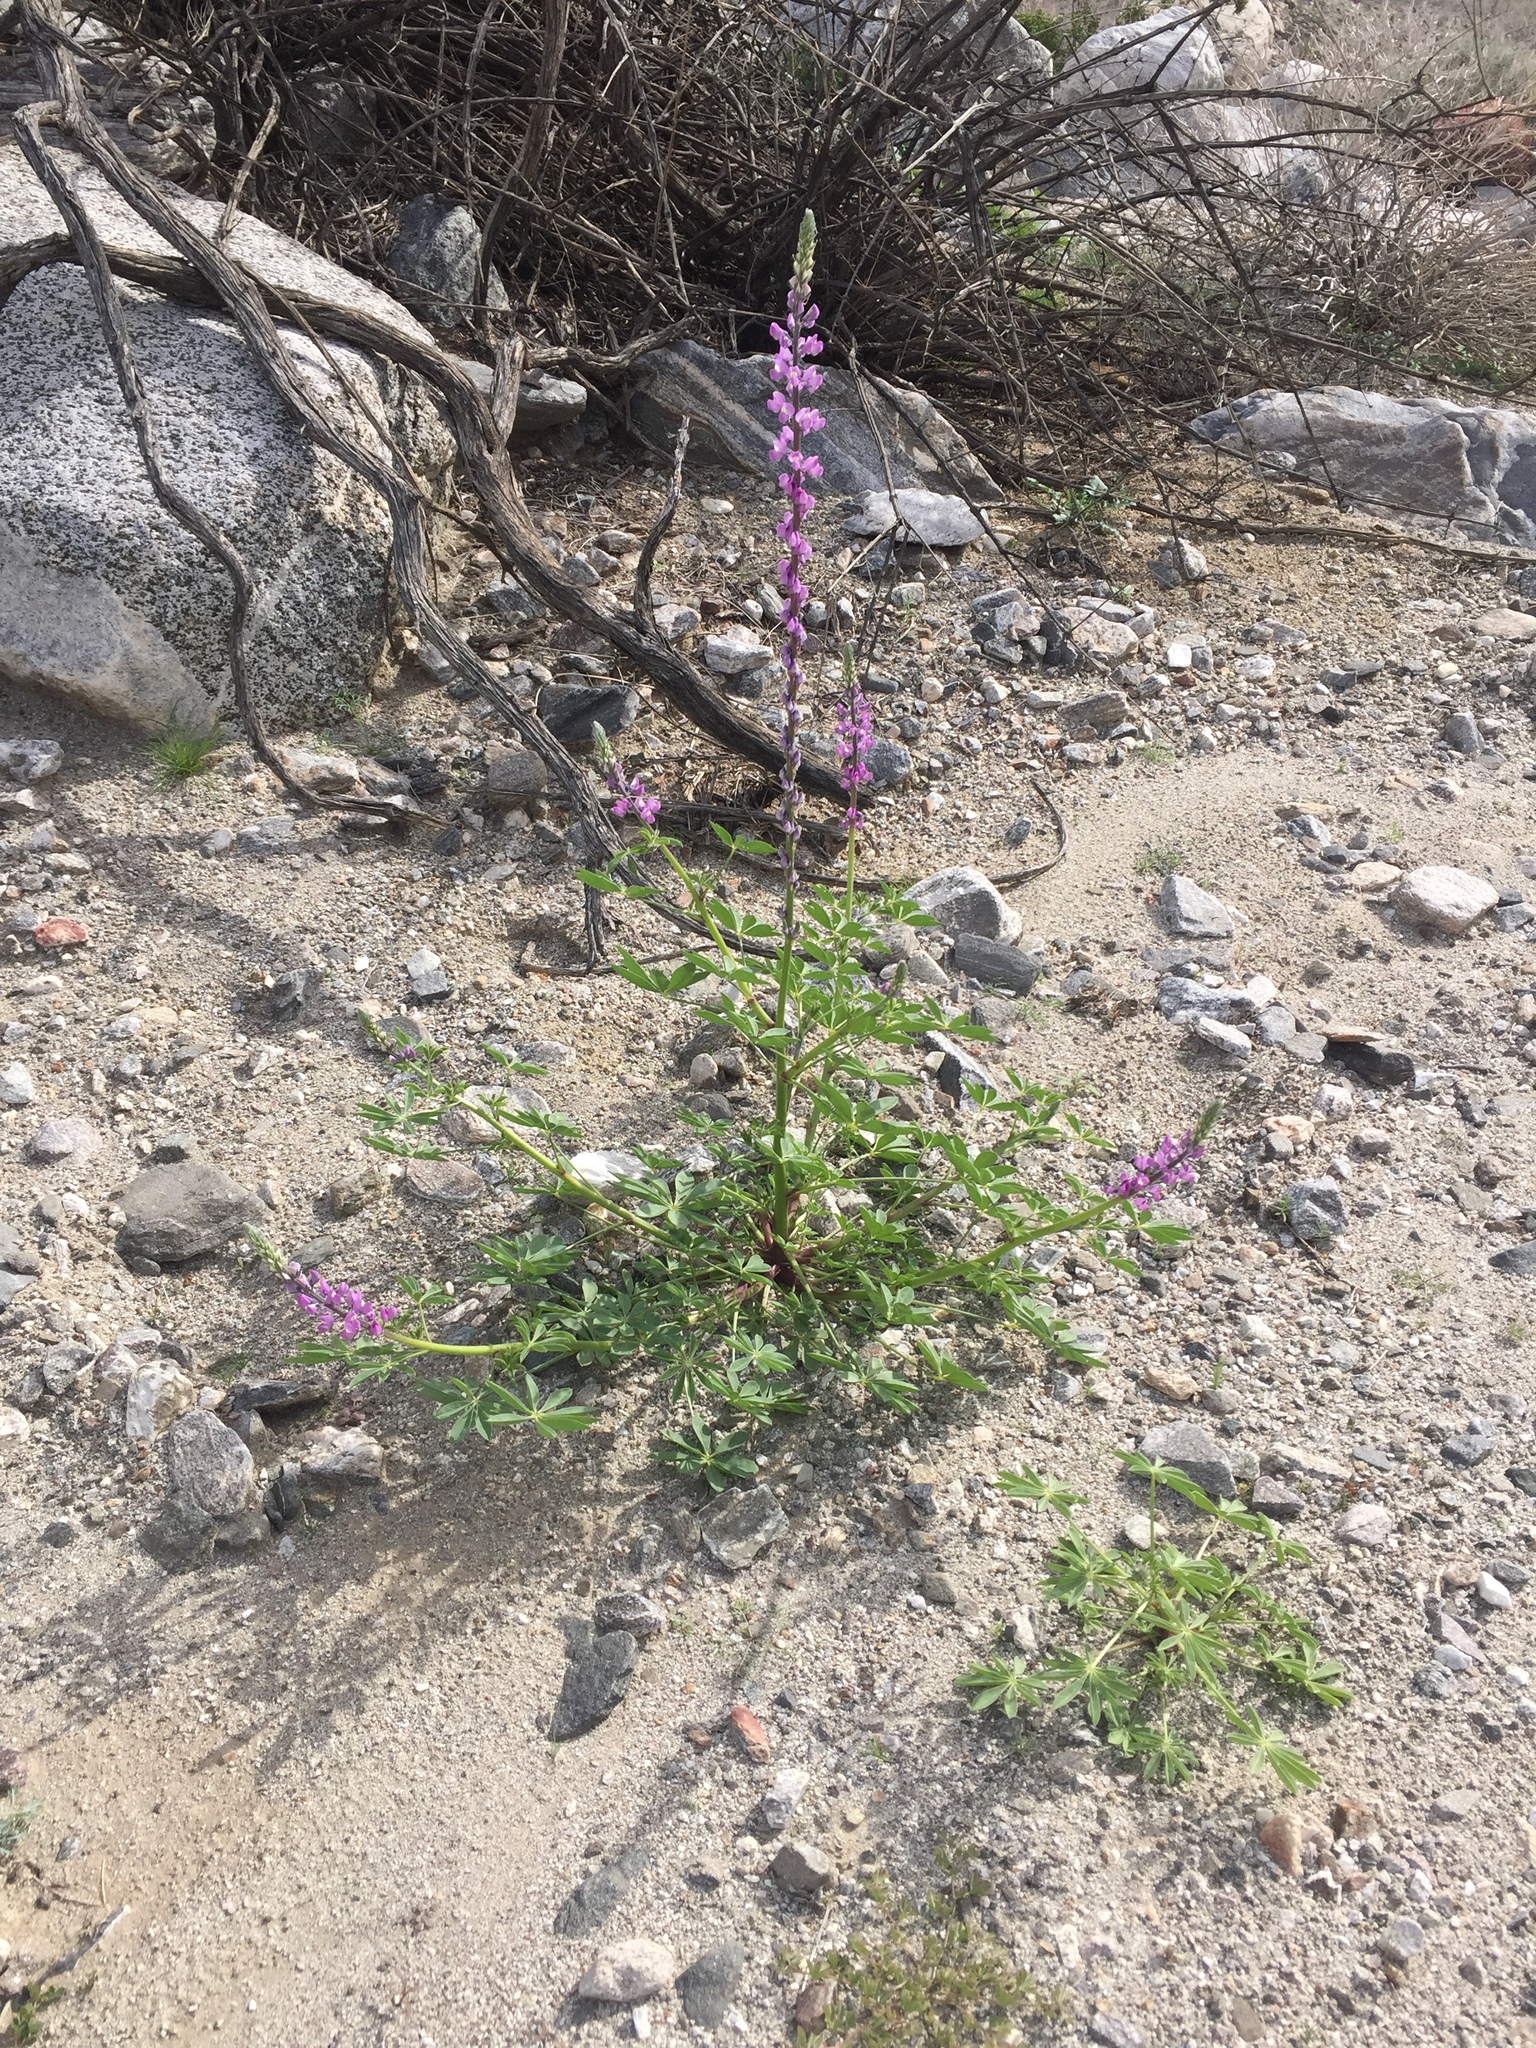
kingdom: Plantae
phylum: Tracheophyta
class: Magnoliopsida
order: Fabales
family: Fabaceae
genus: Lupinus
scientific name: Lupinus arizonicus
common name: Arizona lupine
